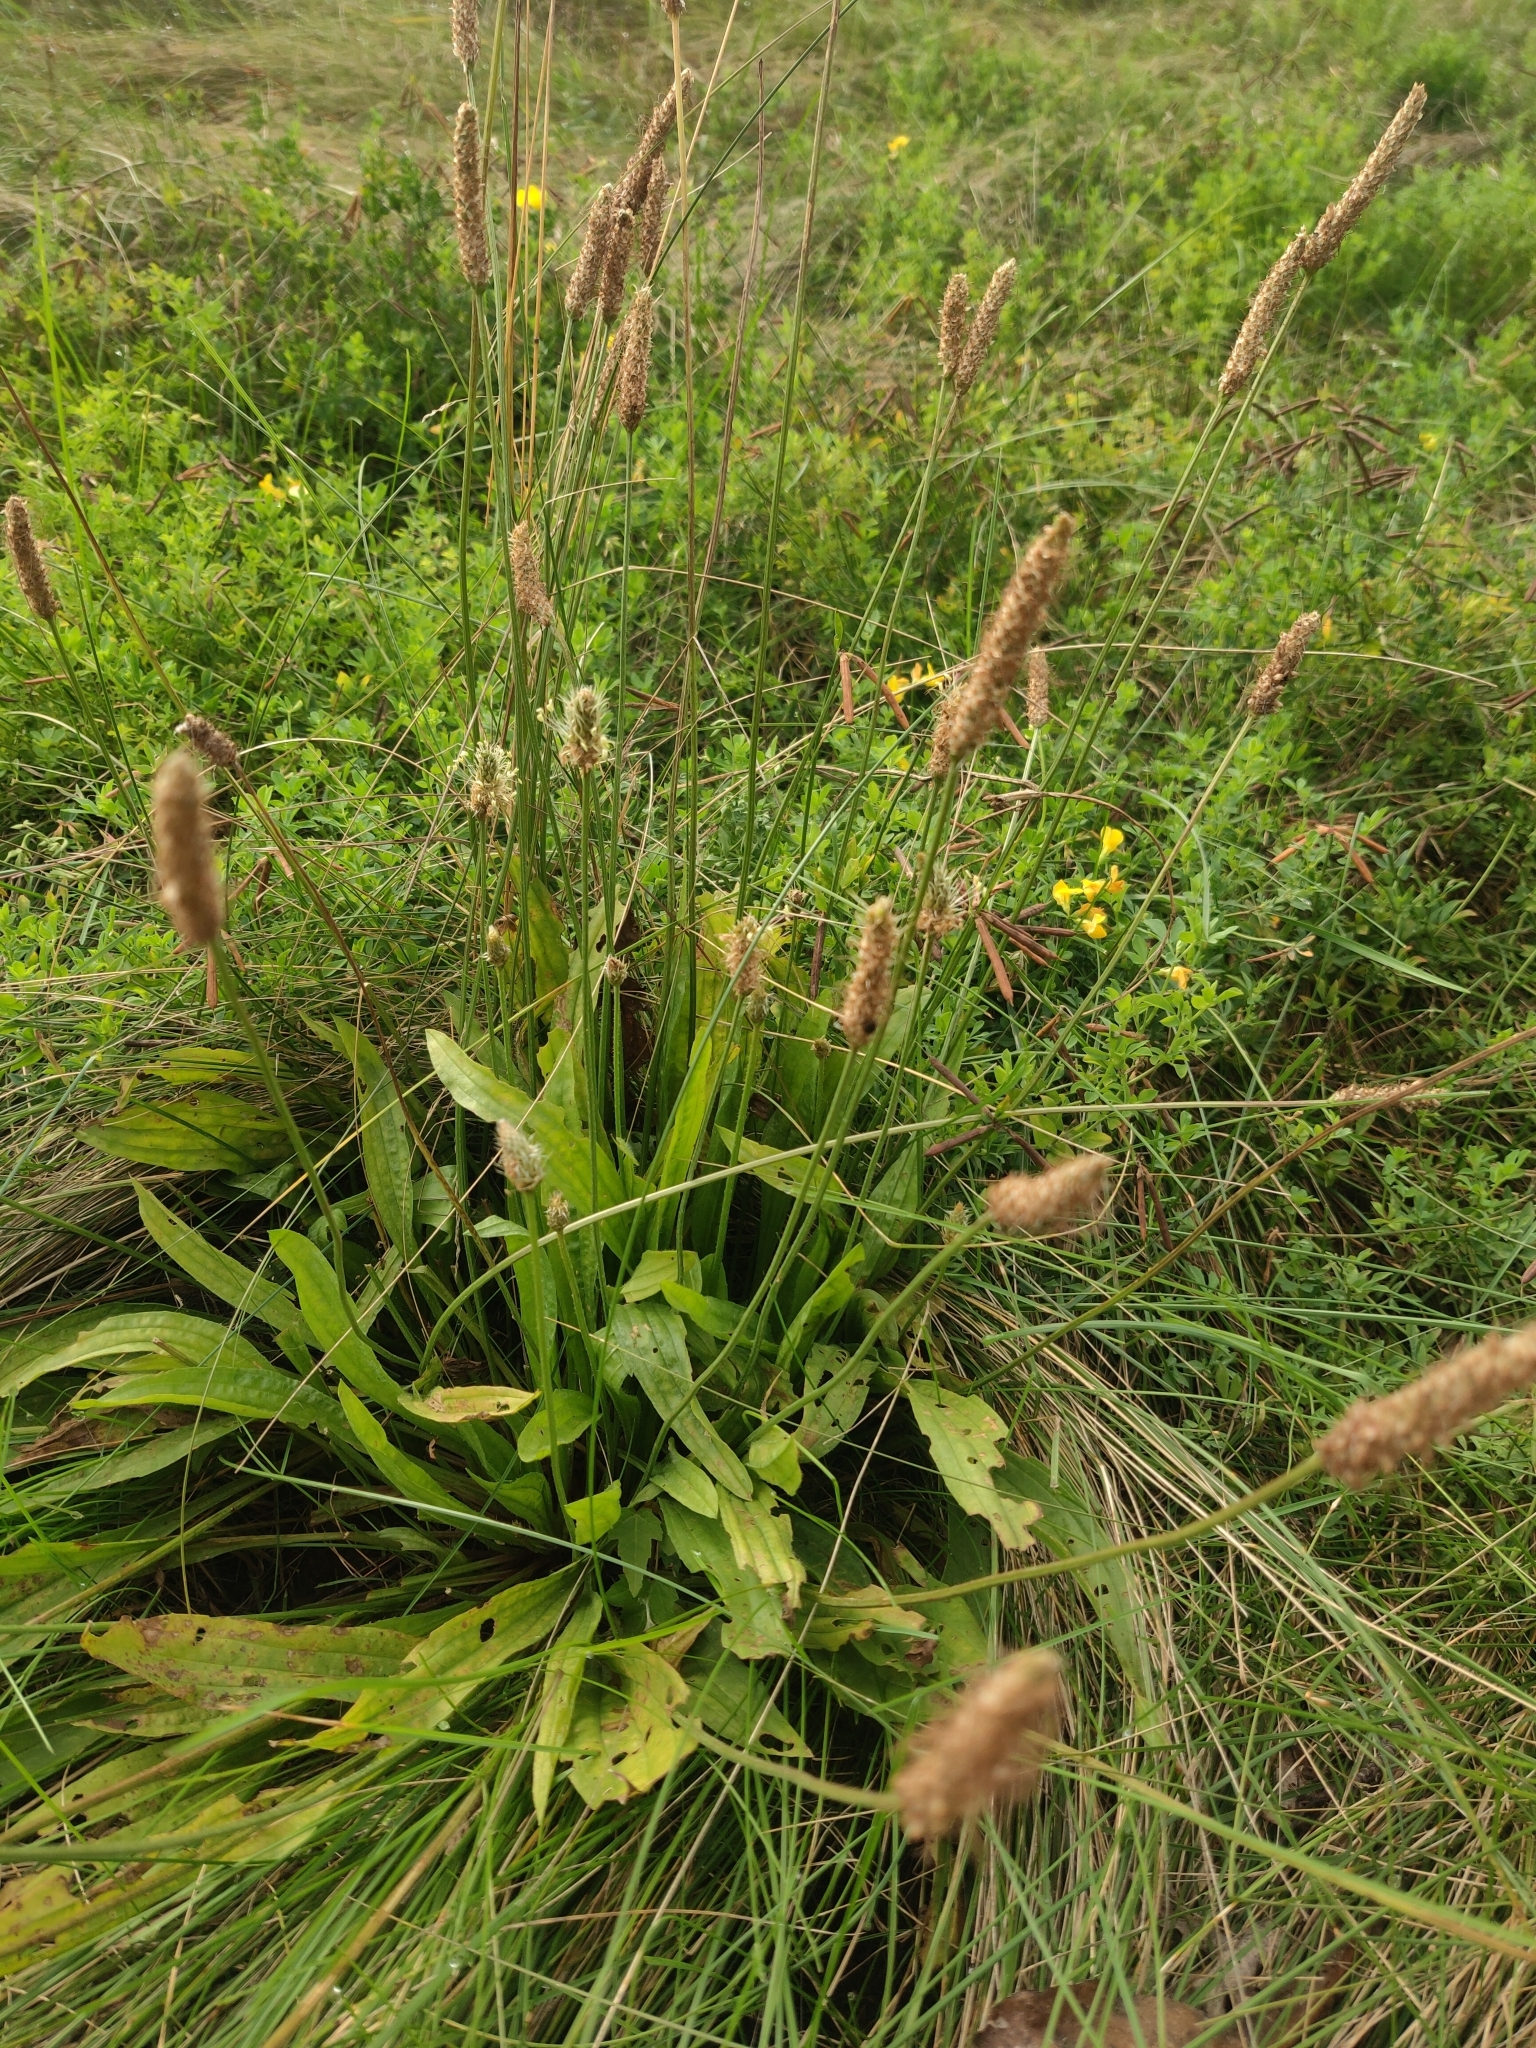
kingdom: Plantae
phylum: Tracheophyta
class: Magnoliopsida
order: Lamiales
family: Plantaginaceae
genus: Plantago
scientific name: Plantago lanceolata
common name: Ribwort plantain
